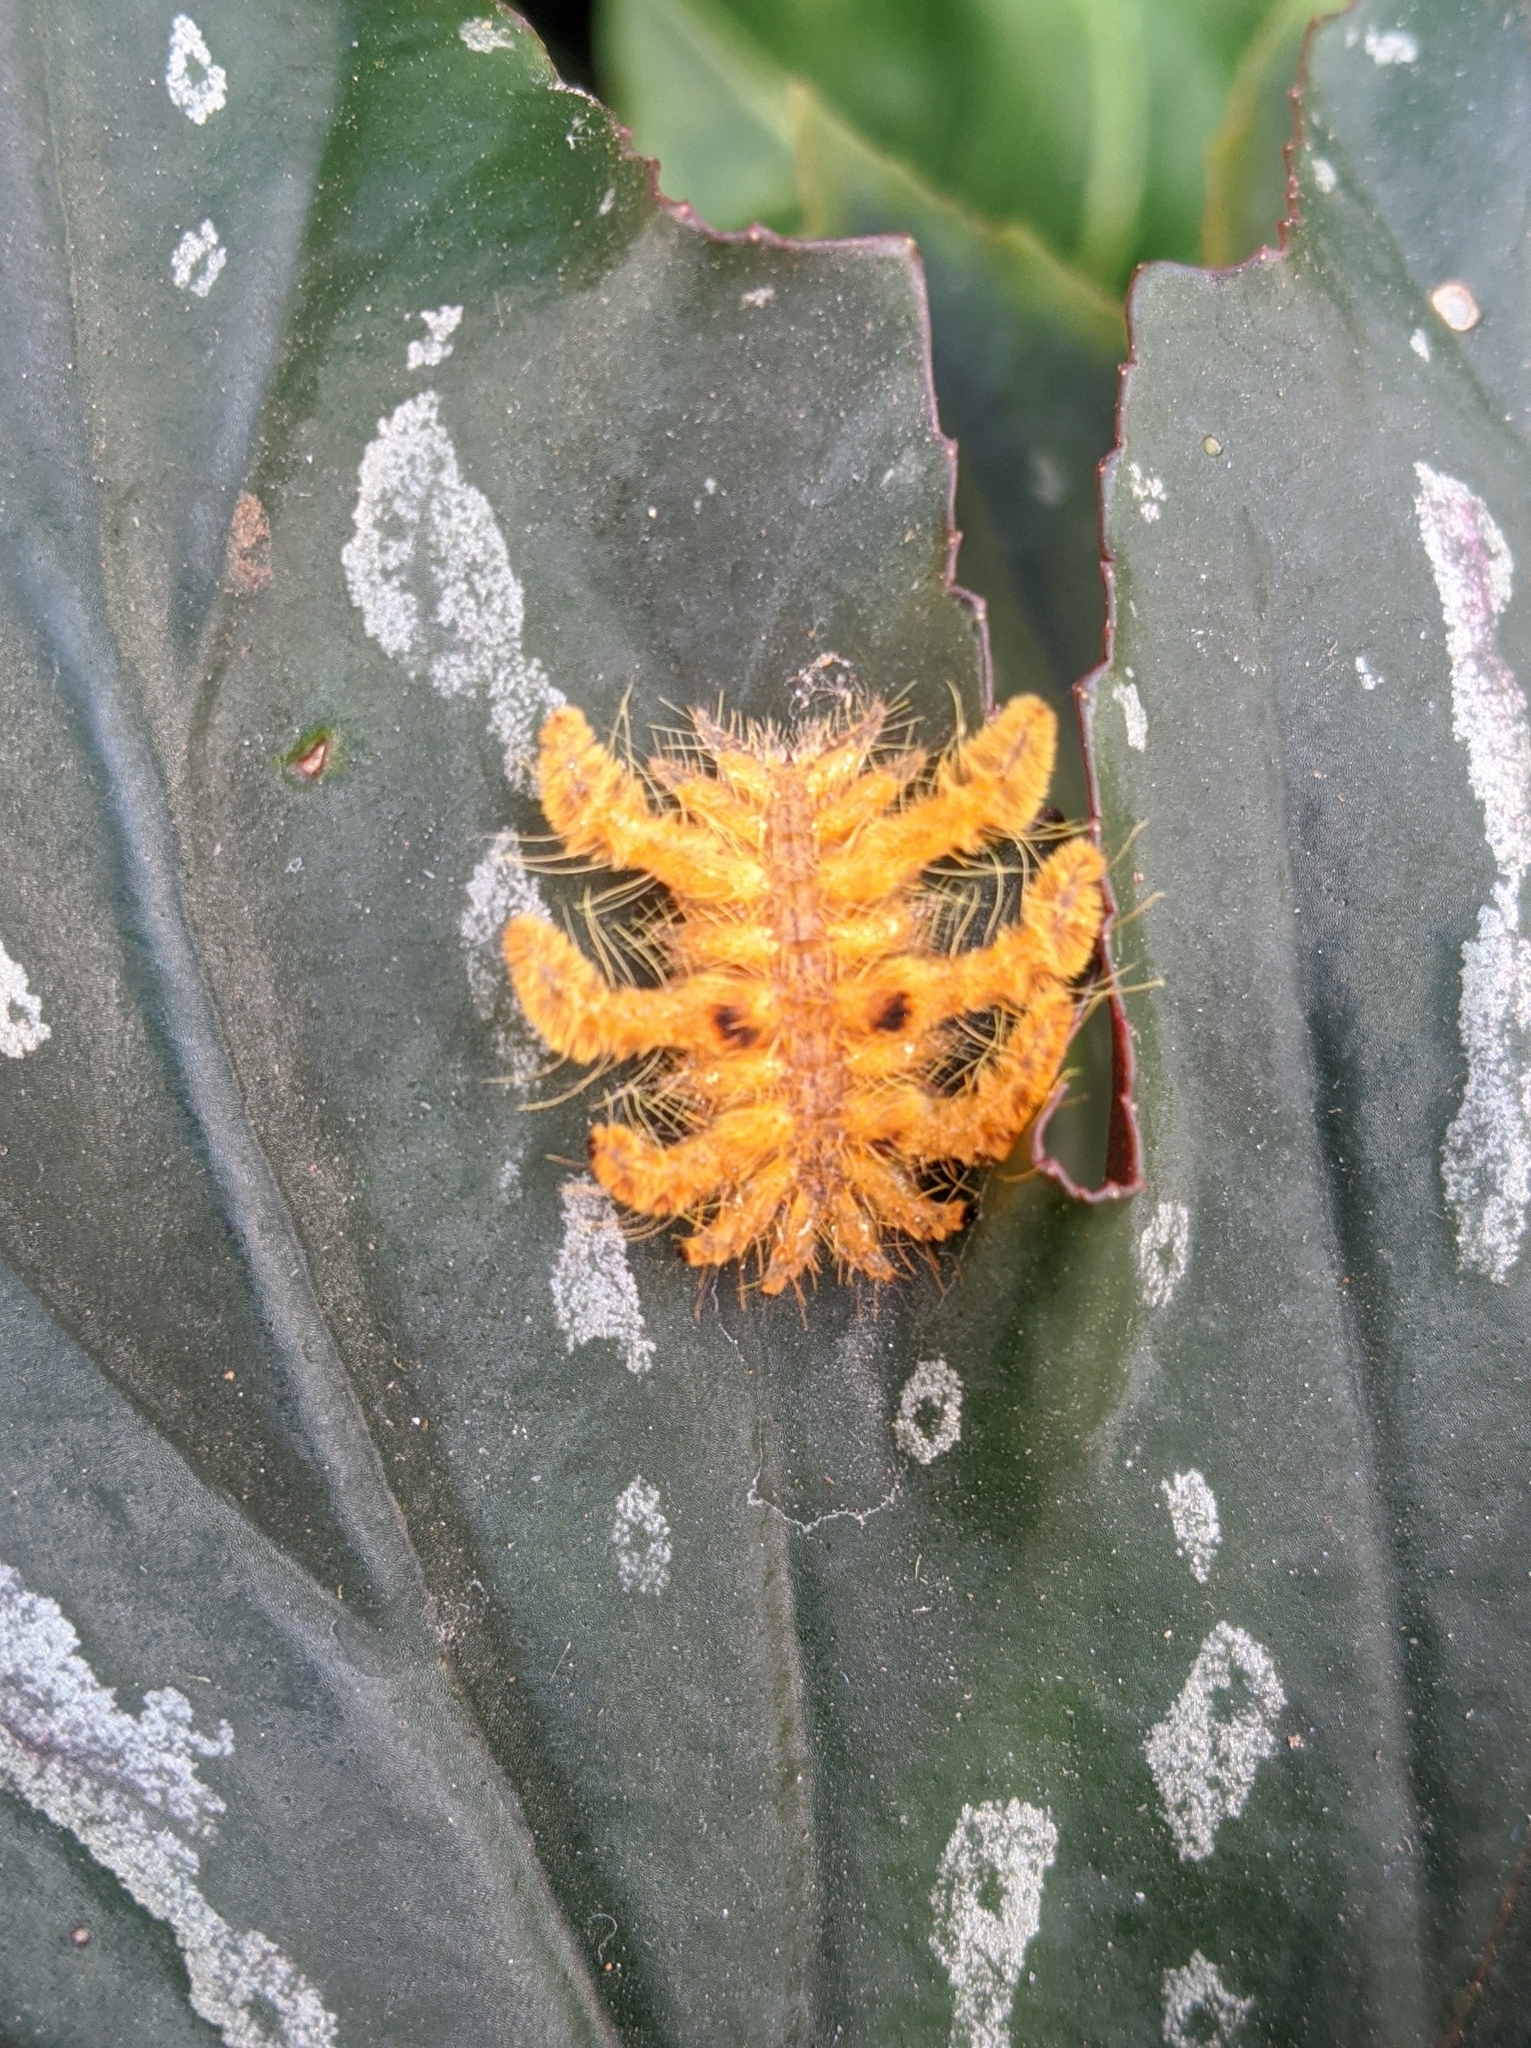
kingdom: Animalia
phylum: Arthropoda
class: Insecta
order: Lepidoptera
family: Limacodidae
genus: Phobetron
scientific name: Phobetron hipparchia
